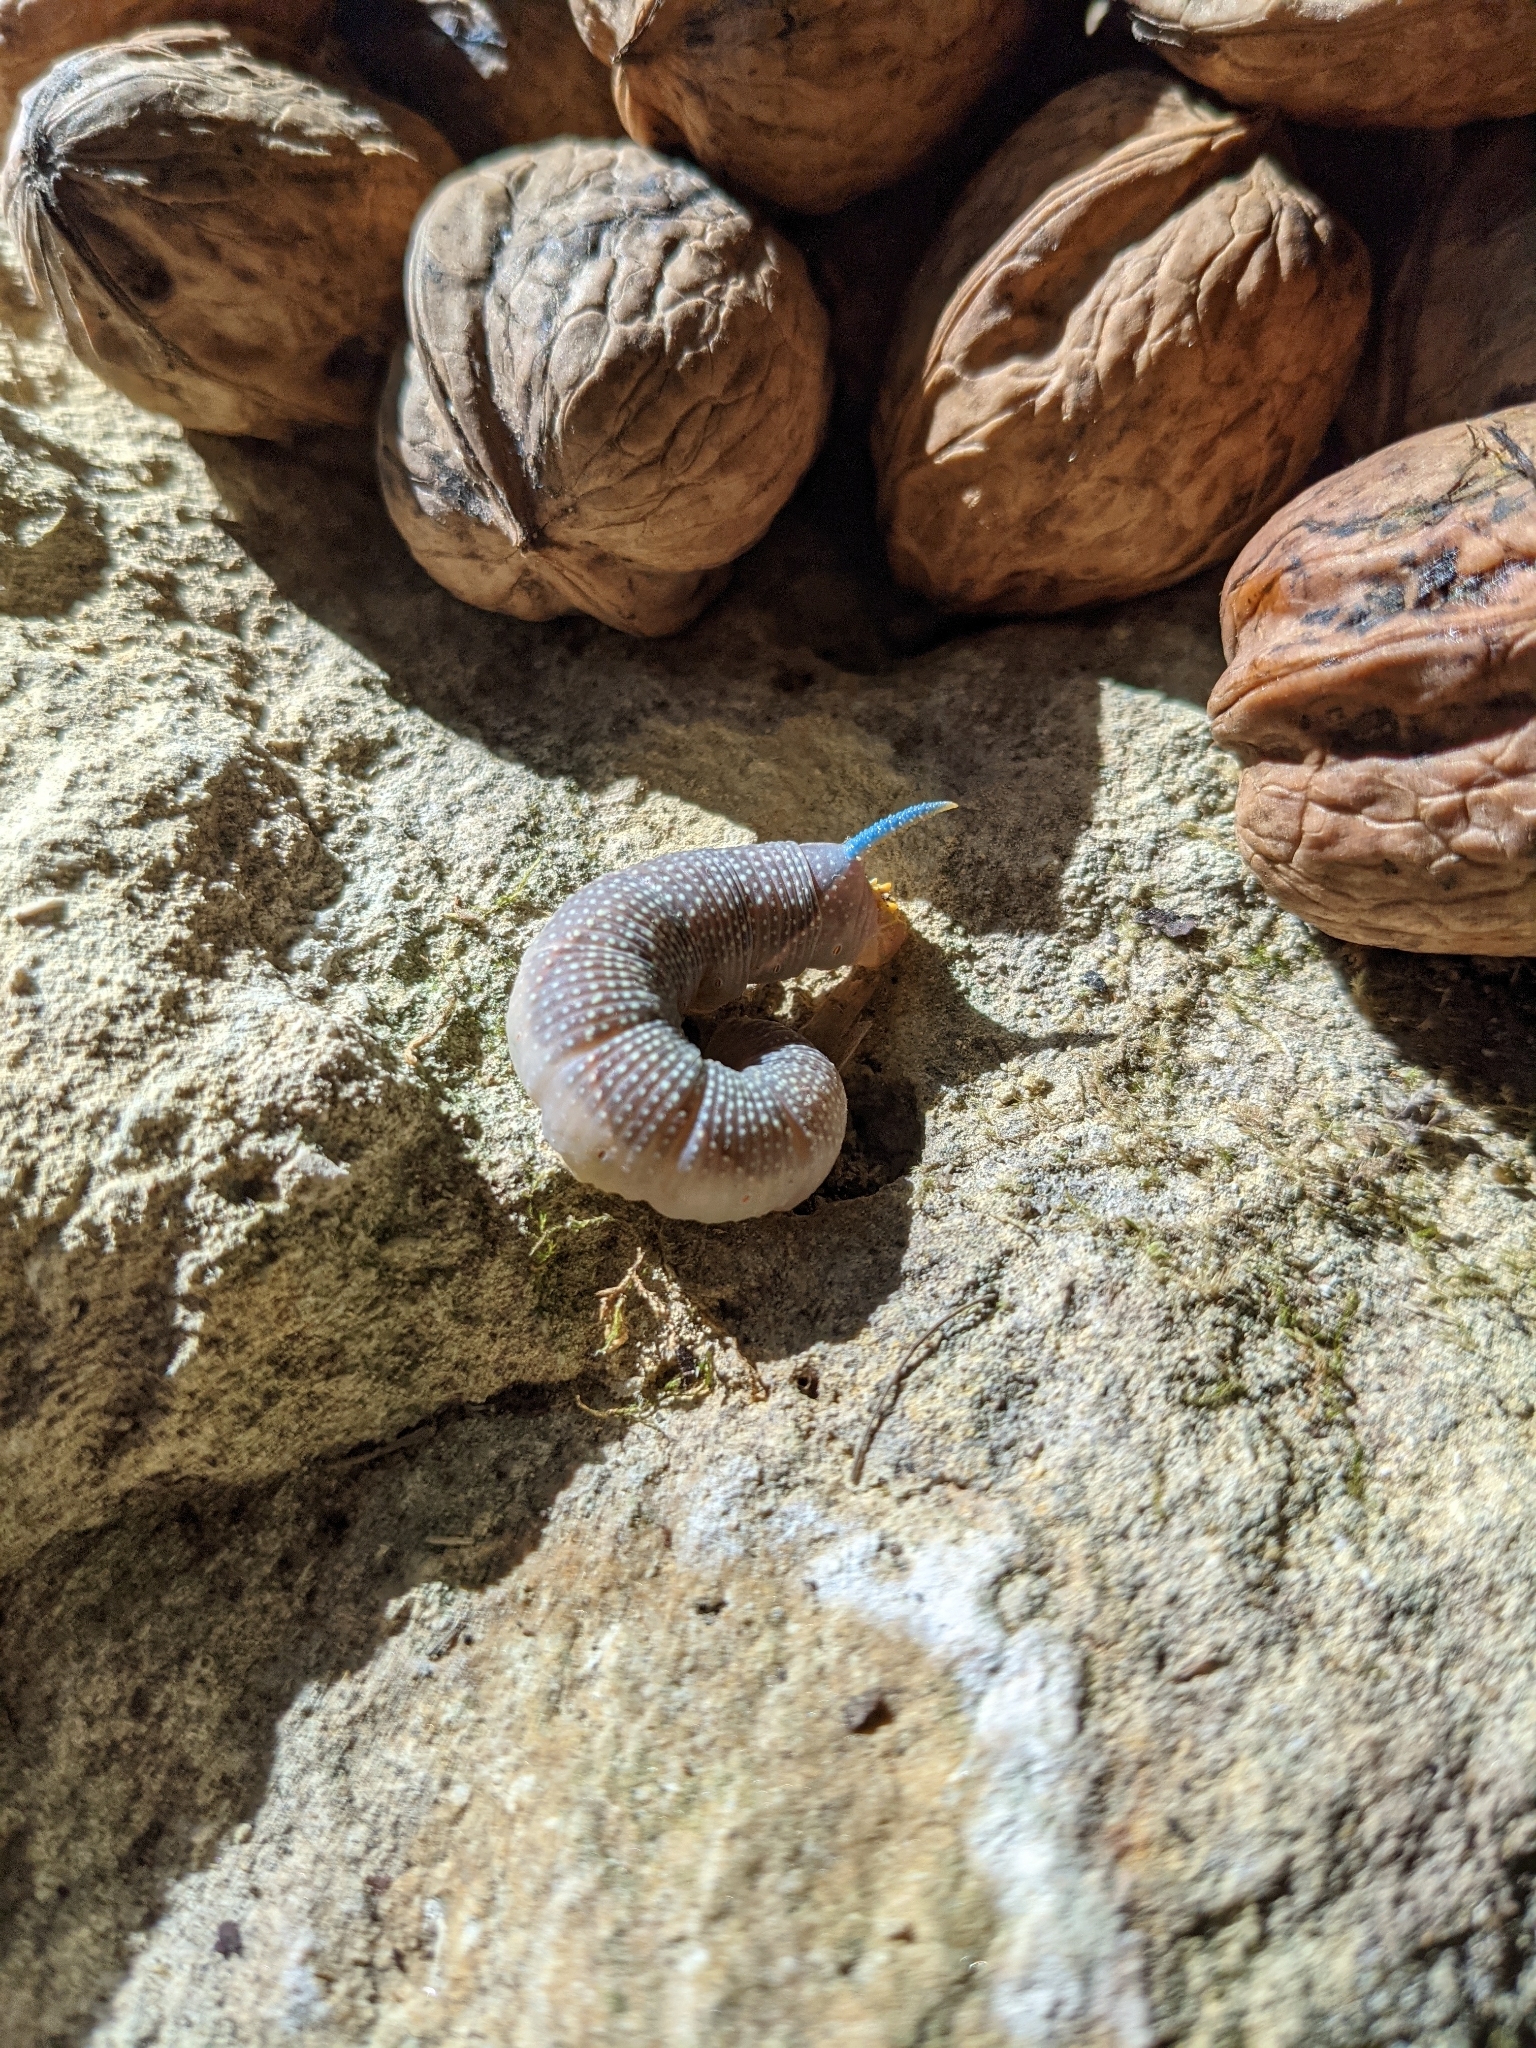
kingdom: Animalia
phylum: Arthropoda
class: Insecta
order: Lepidoptera
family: Sphingidae
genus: Mimas
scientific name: Mimas tiliae
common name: Lime hawk-moth
